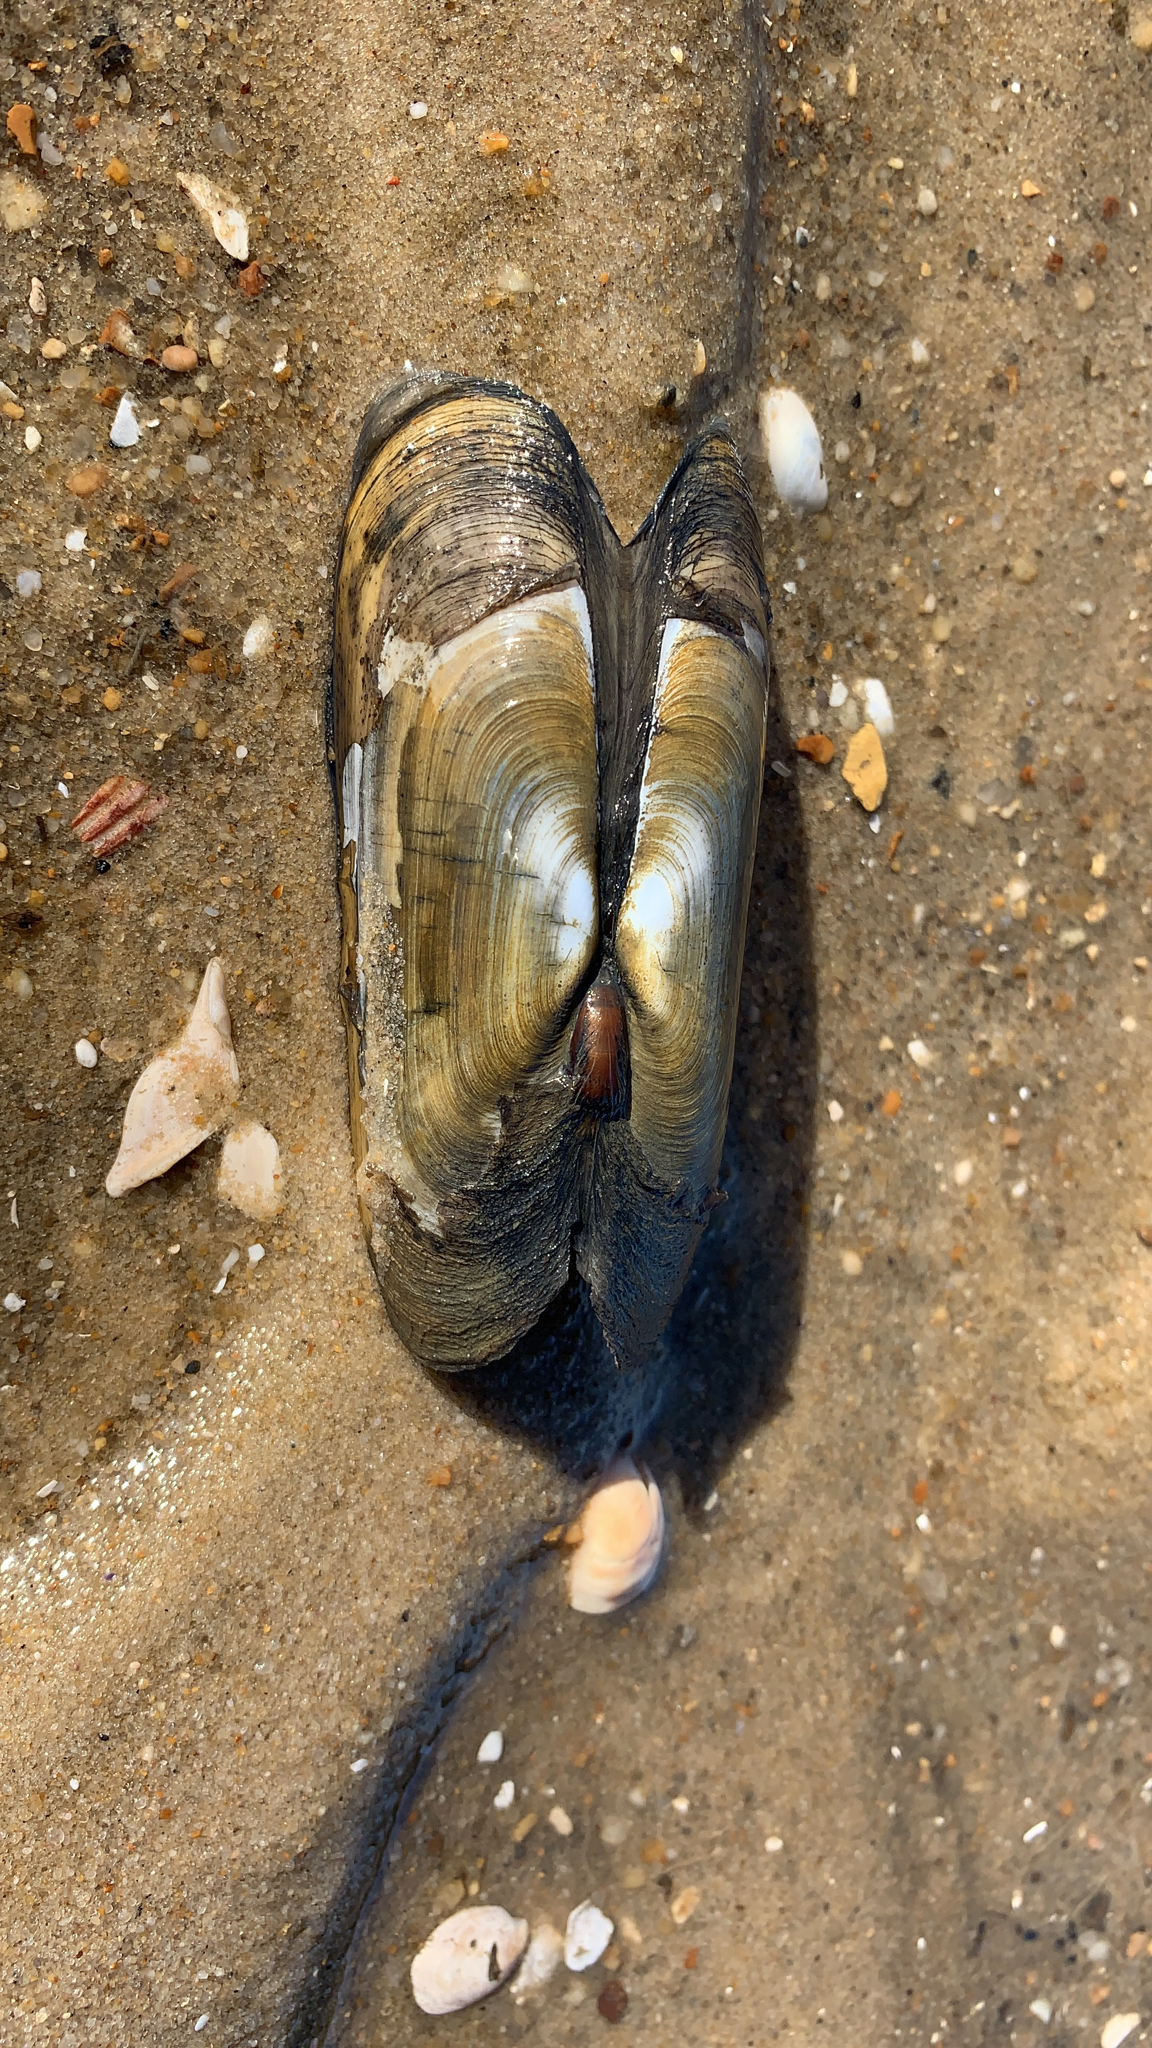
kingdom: Animalia
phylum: Mollusca
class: Bivalvia
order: Cardiida
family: Solecurtidae
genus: Tagelus
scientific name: Tagelus plebeius
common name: Stout tagelus
